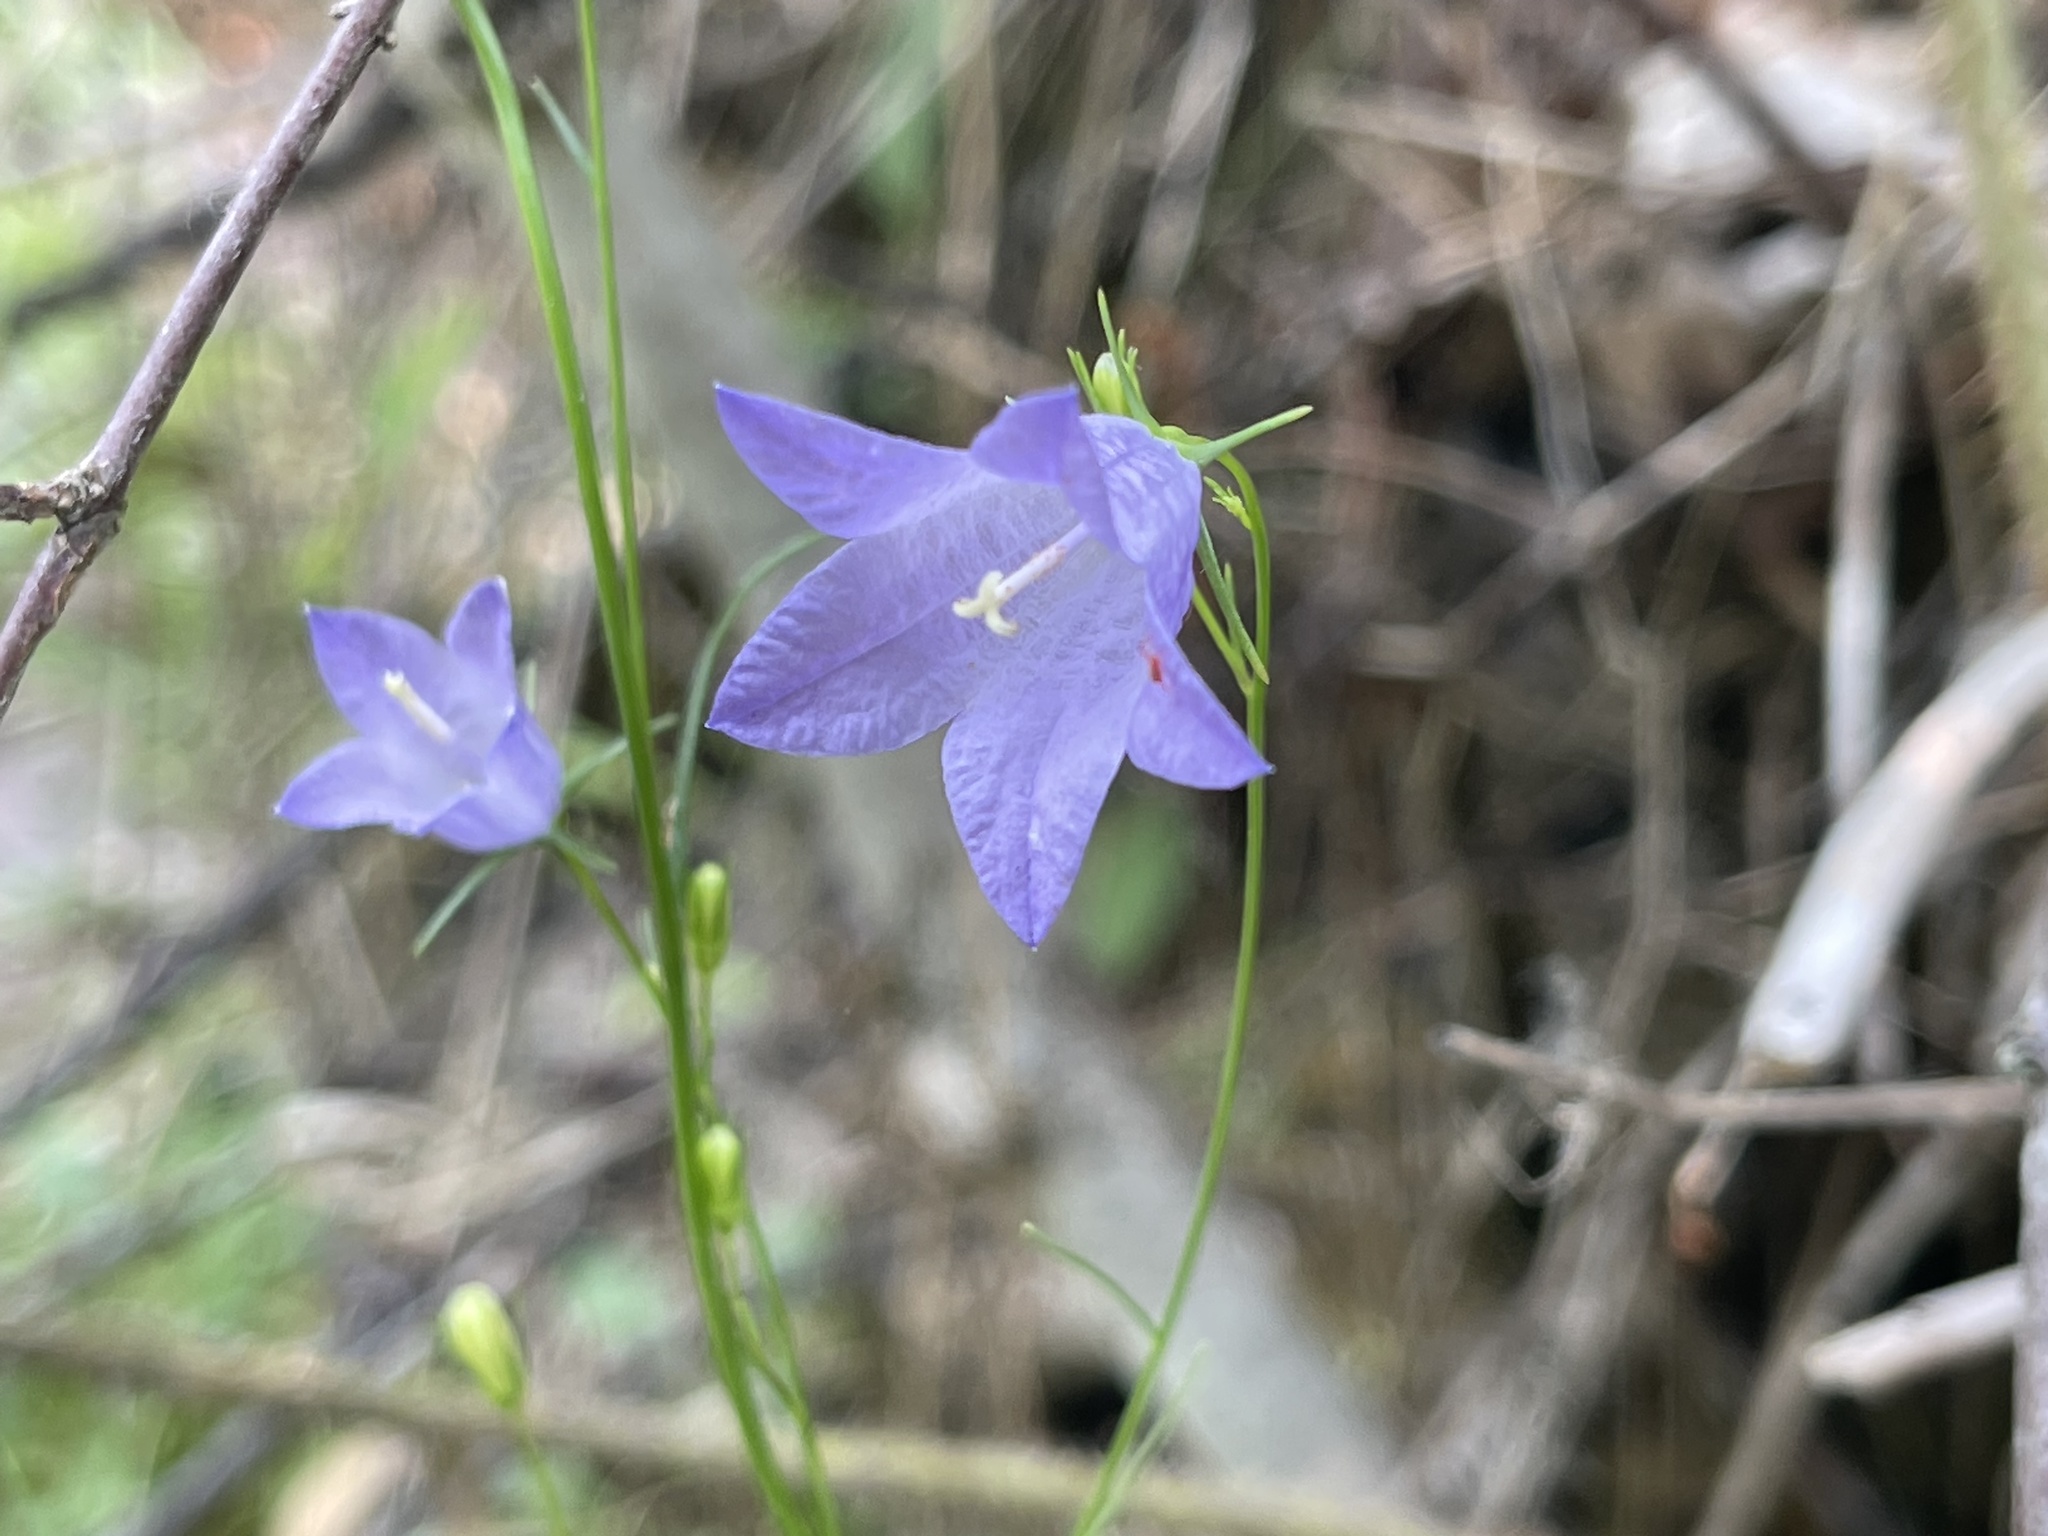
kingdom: Plantae
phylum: Tracheophyta
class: Magnoliopsida
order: Asterales
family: Campanulaceae
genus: Campanula
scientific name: Campanula petiolata
